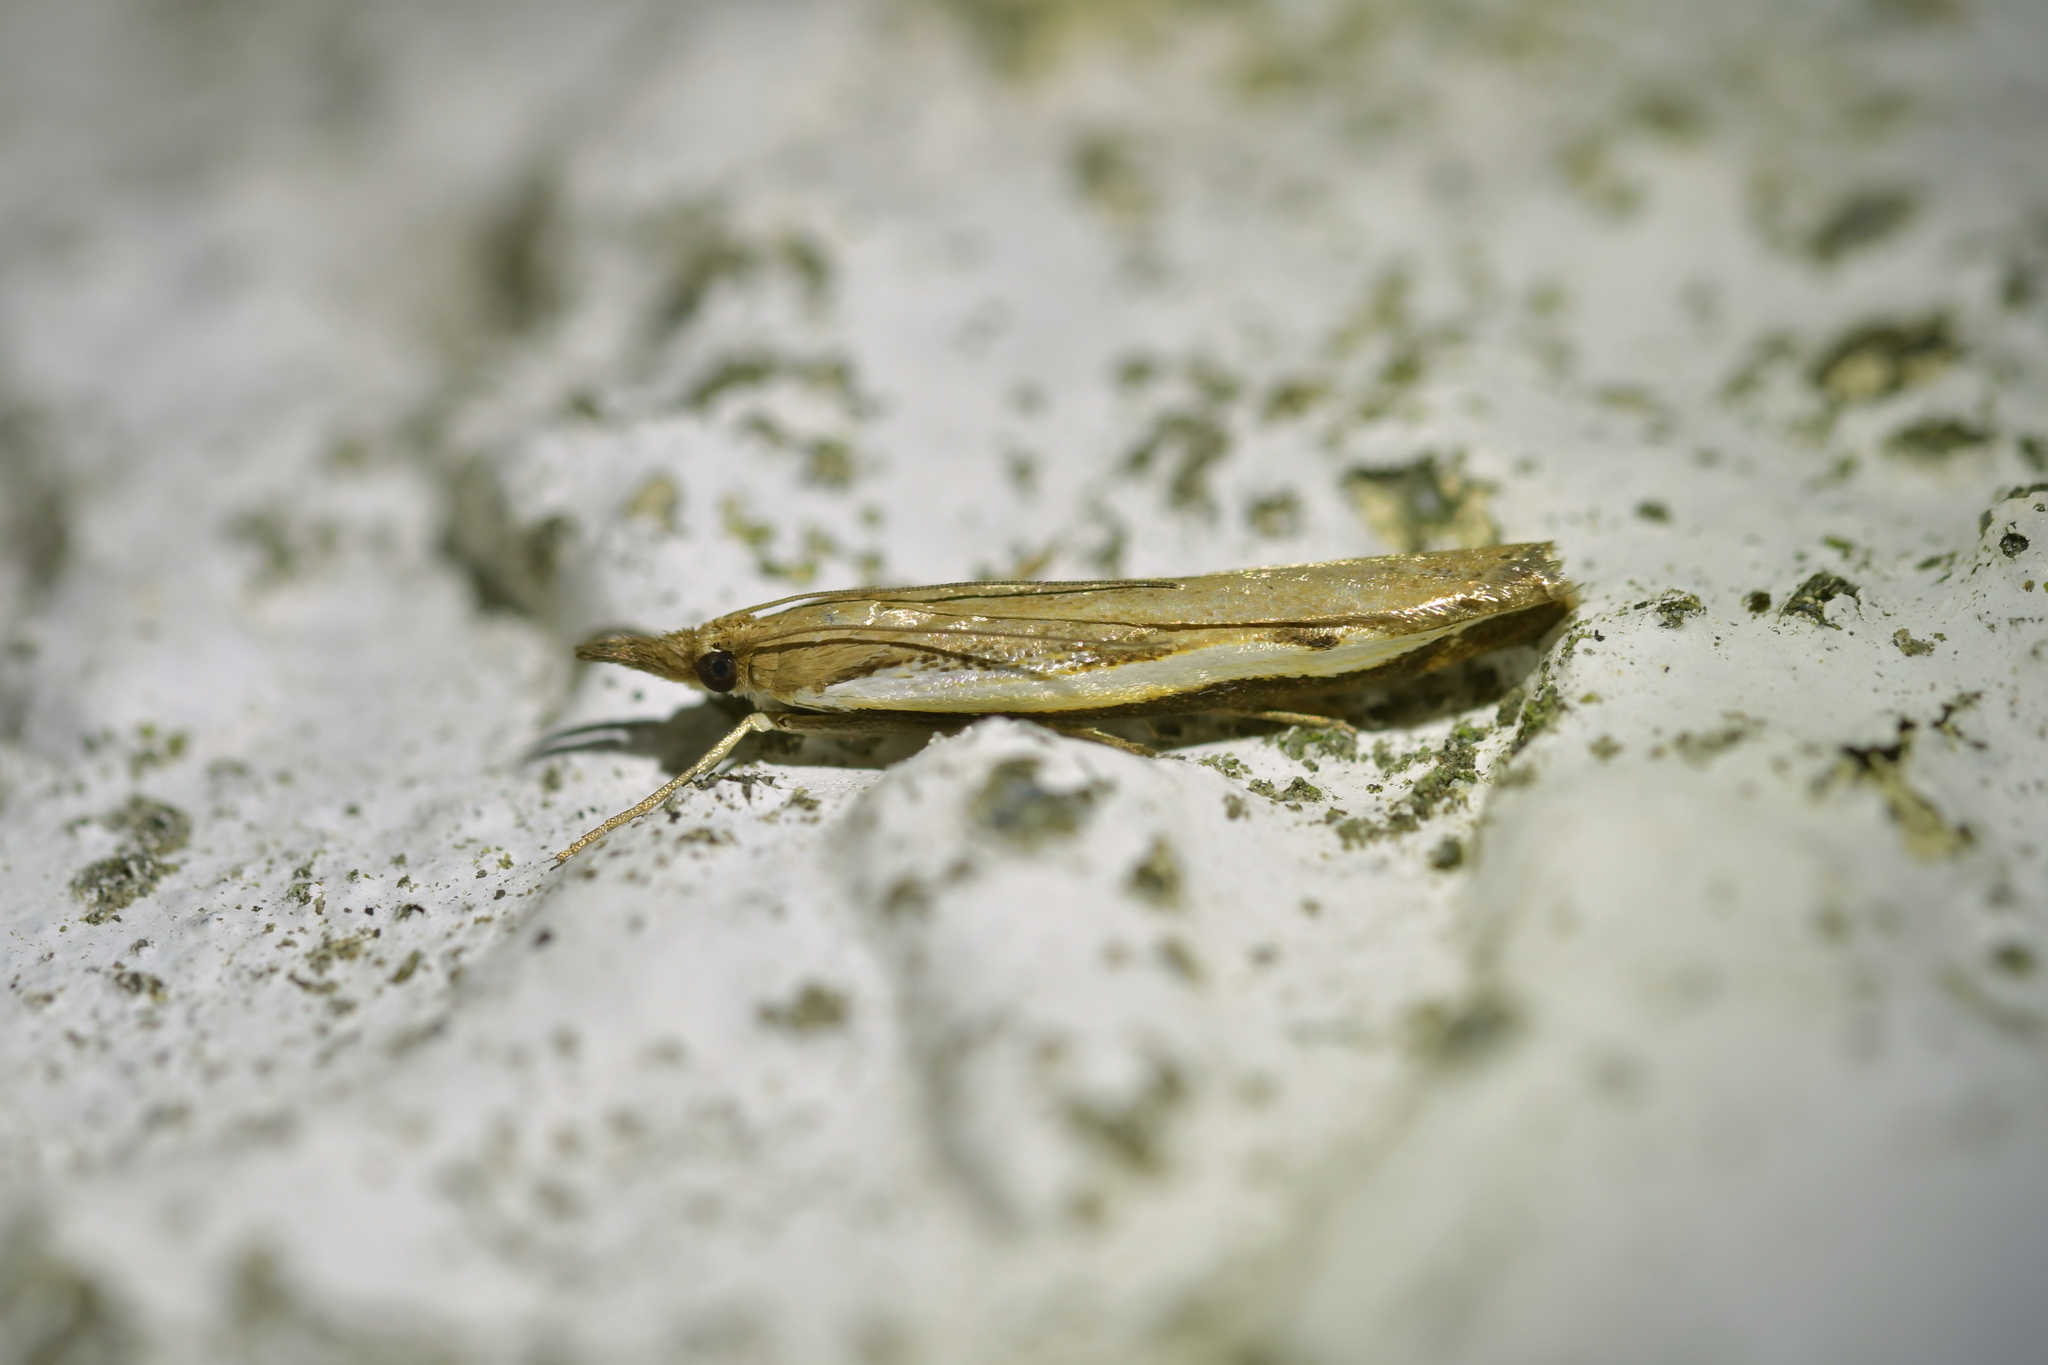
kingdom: Animalia
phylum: Arthropoda
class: Insecta
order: Lepidoptera
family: Crambidae
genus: Orocrambus
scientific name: Orocrambus flexuosellus
